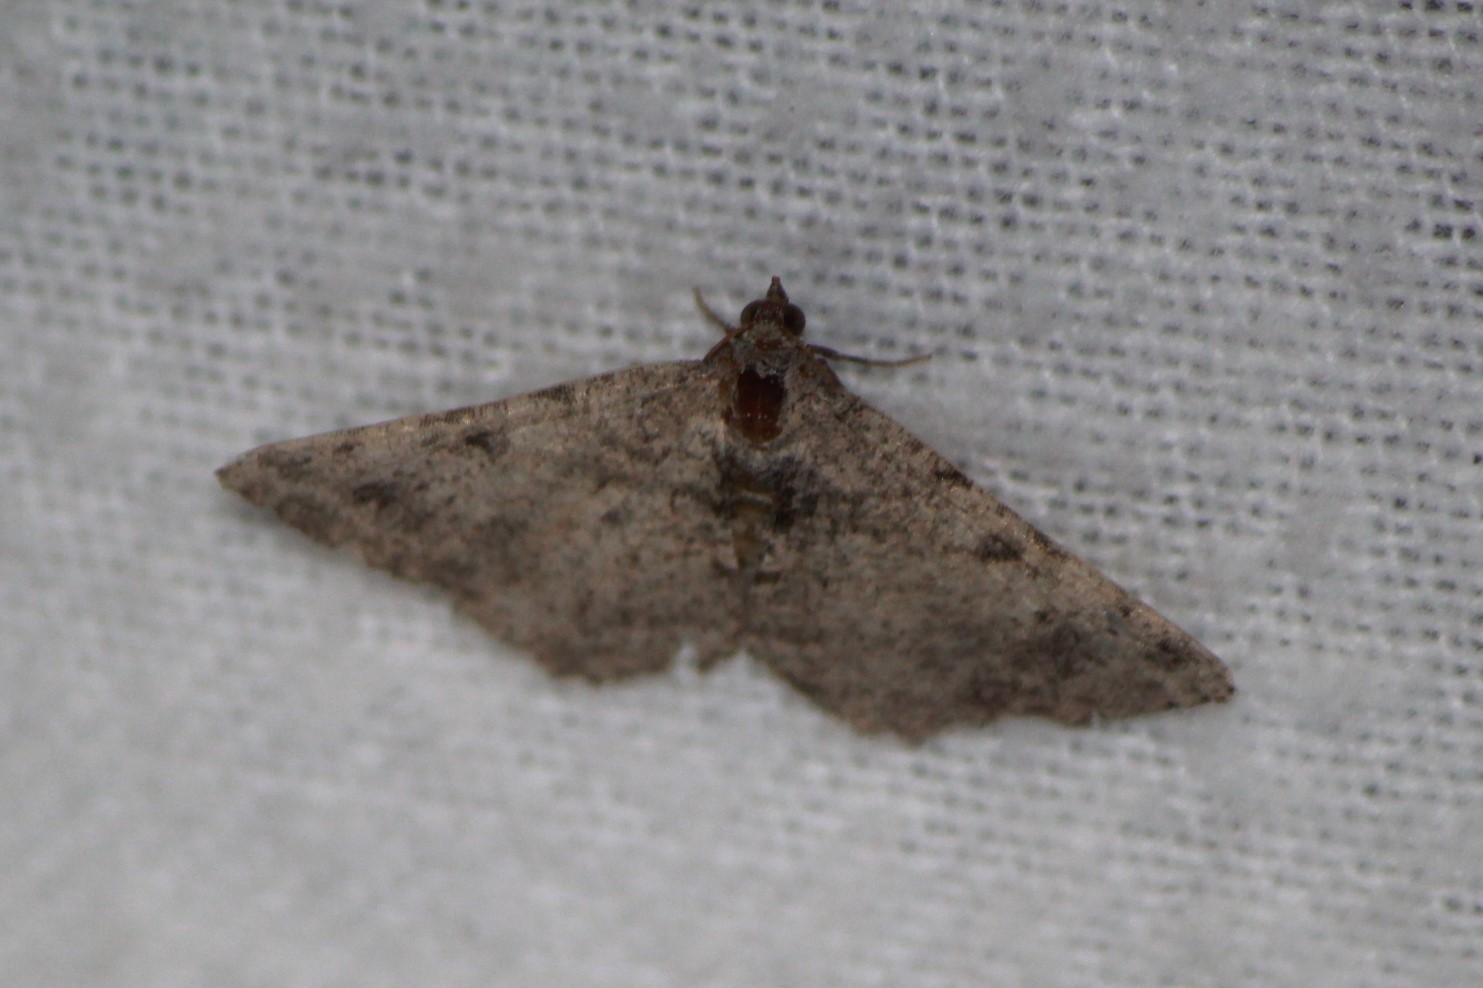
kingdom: Animalia
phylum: Arthropoda
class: Insecta
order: Lepidoptera
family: Geometridae
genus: Digrammia
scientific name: Digrammia gnophosaria
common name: Hollow-spotted angle
